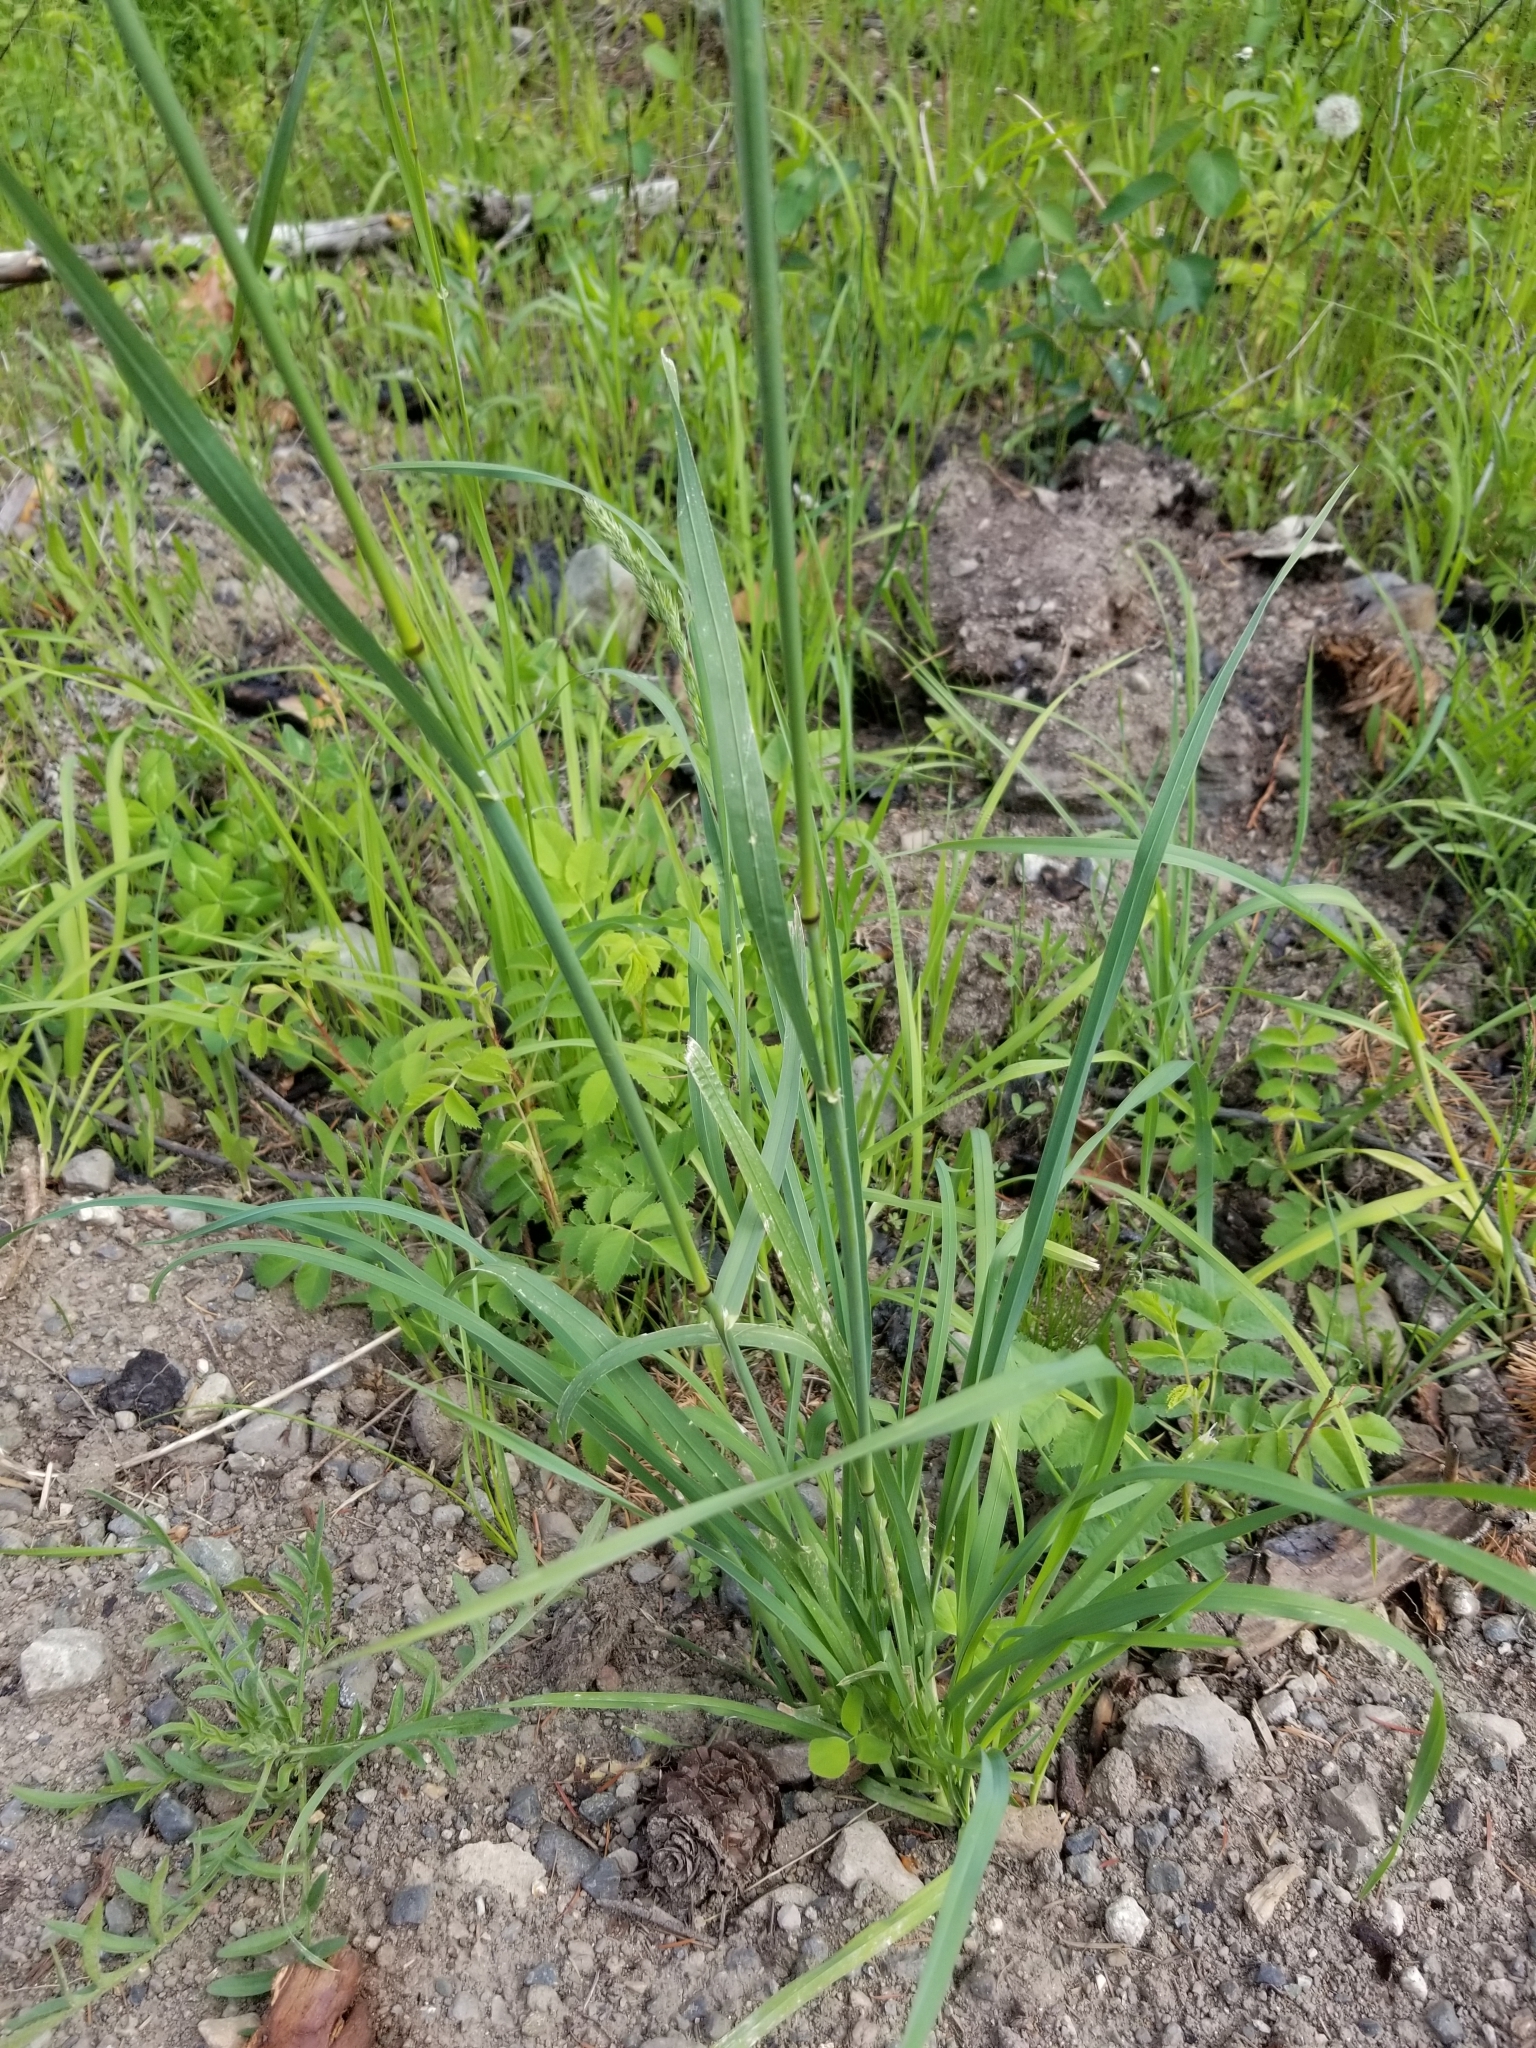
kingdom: Plantae
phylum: Tracheophyta
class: Liliopsida
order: Poales
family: Poaceae
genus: Dactylis
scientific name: Dactylis glomerata
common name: Orchardgrass
